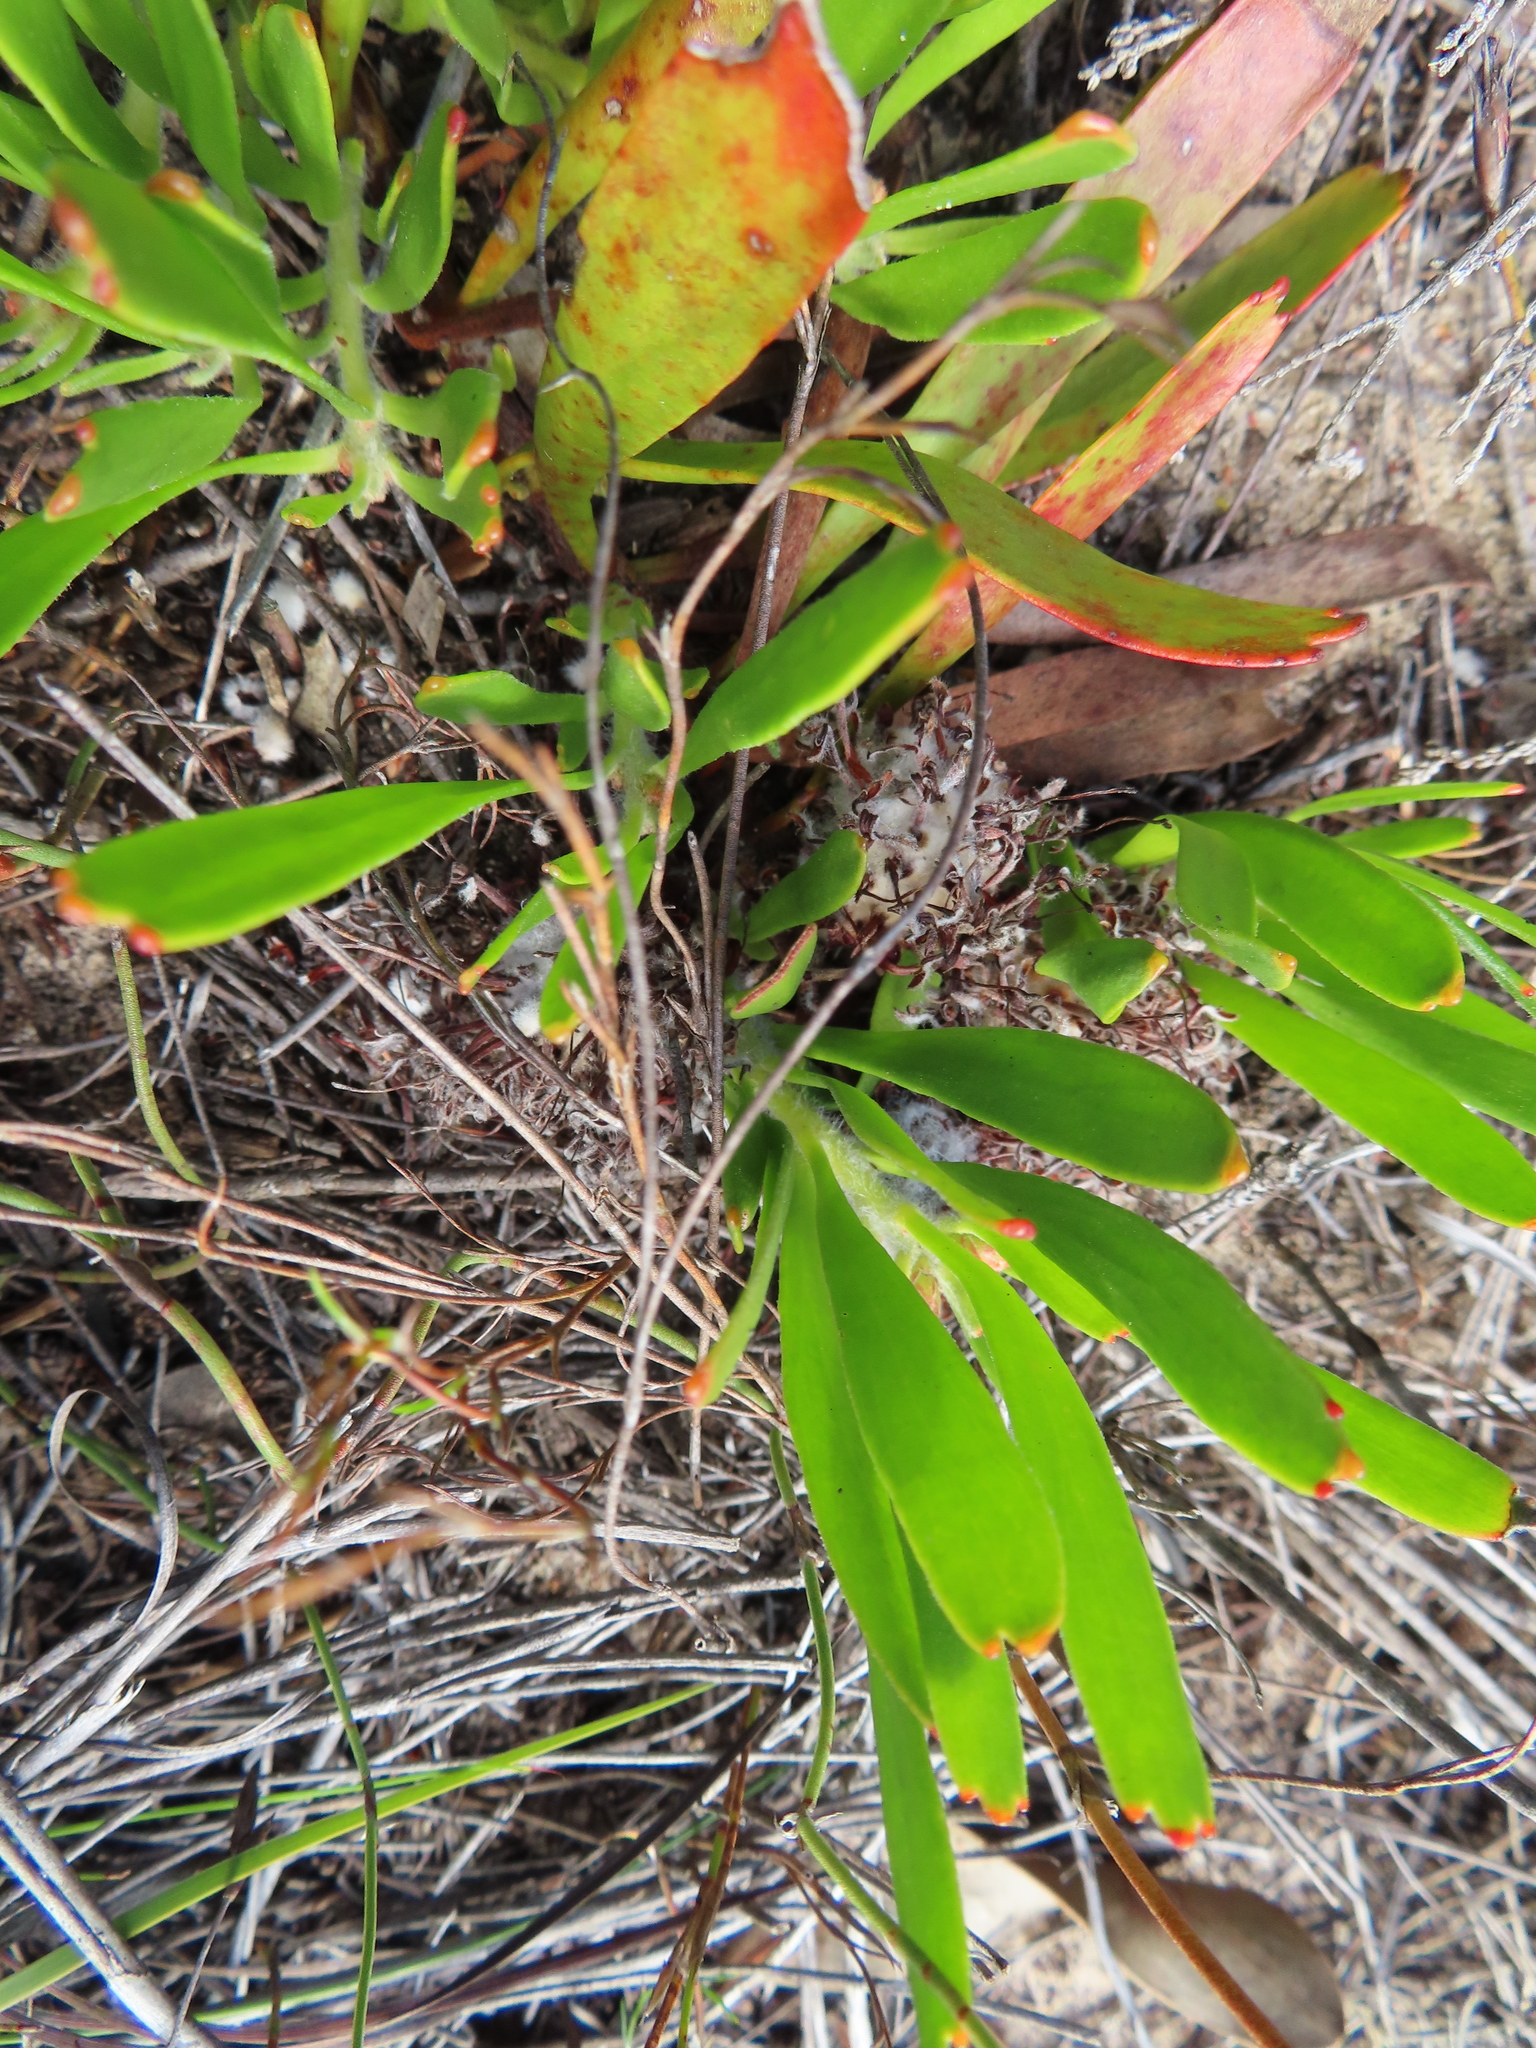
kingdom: Plantae
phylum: Tracheophyta
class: Magnoliopsida
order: Proteales
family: Proteaceae
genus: Leucospermum
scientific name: Leucospermum hypophyllocarpodendron
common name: Snakestem pincushion
